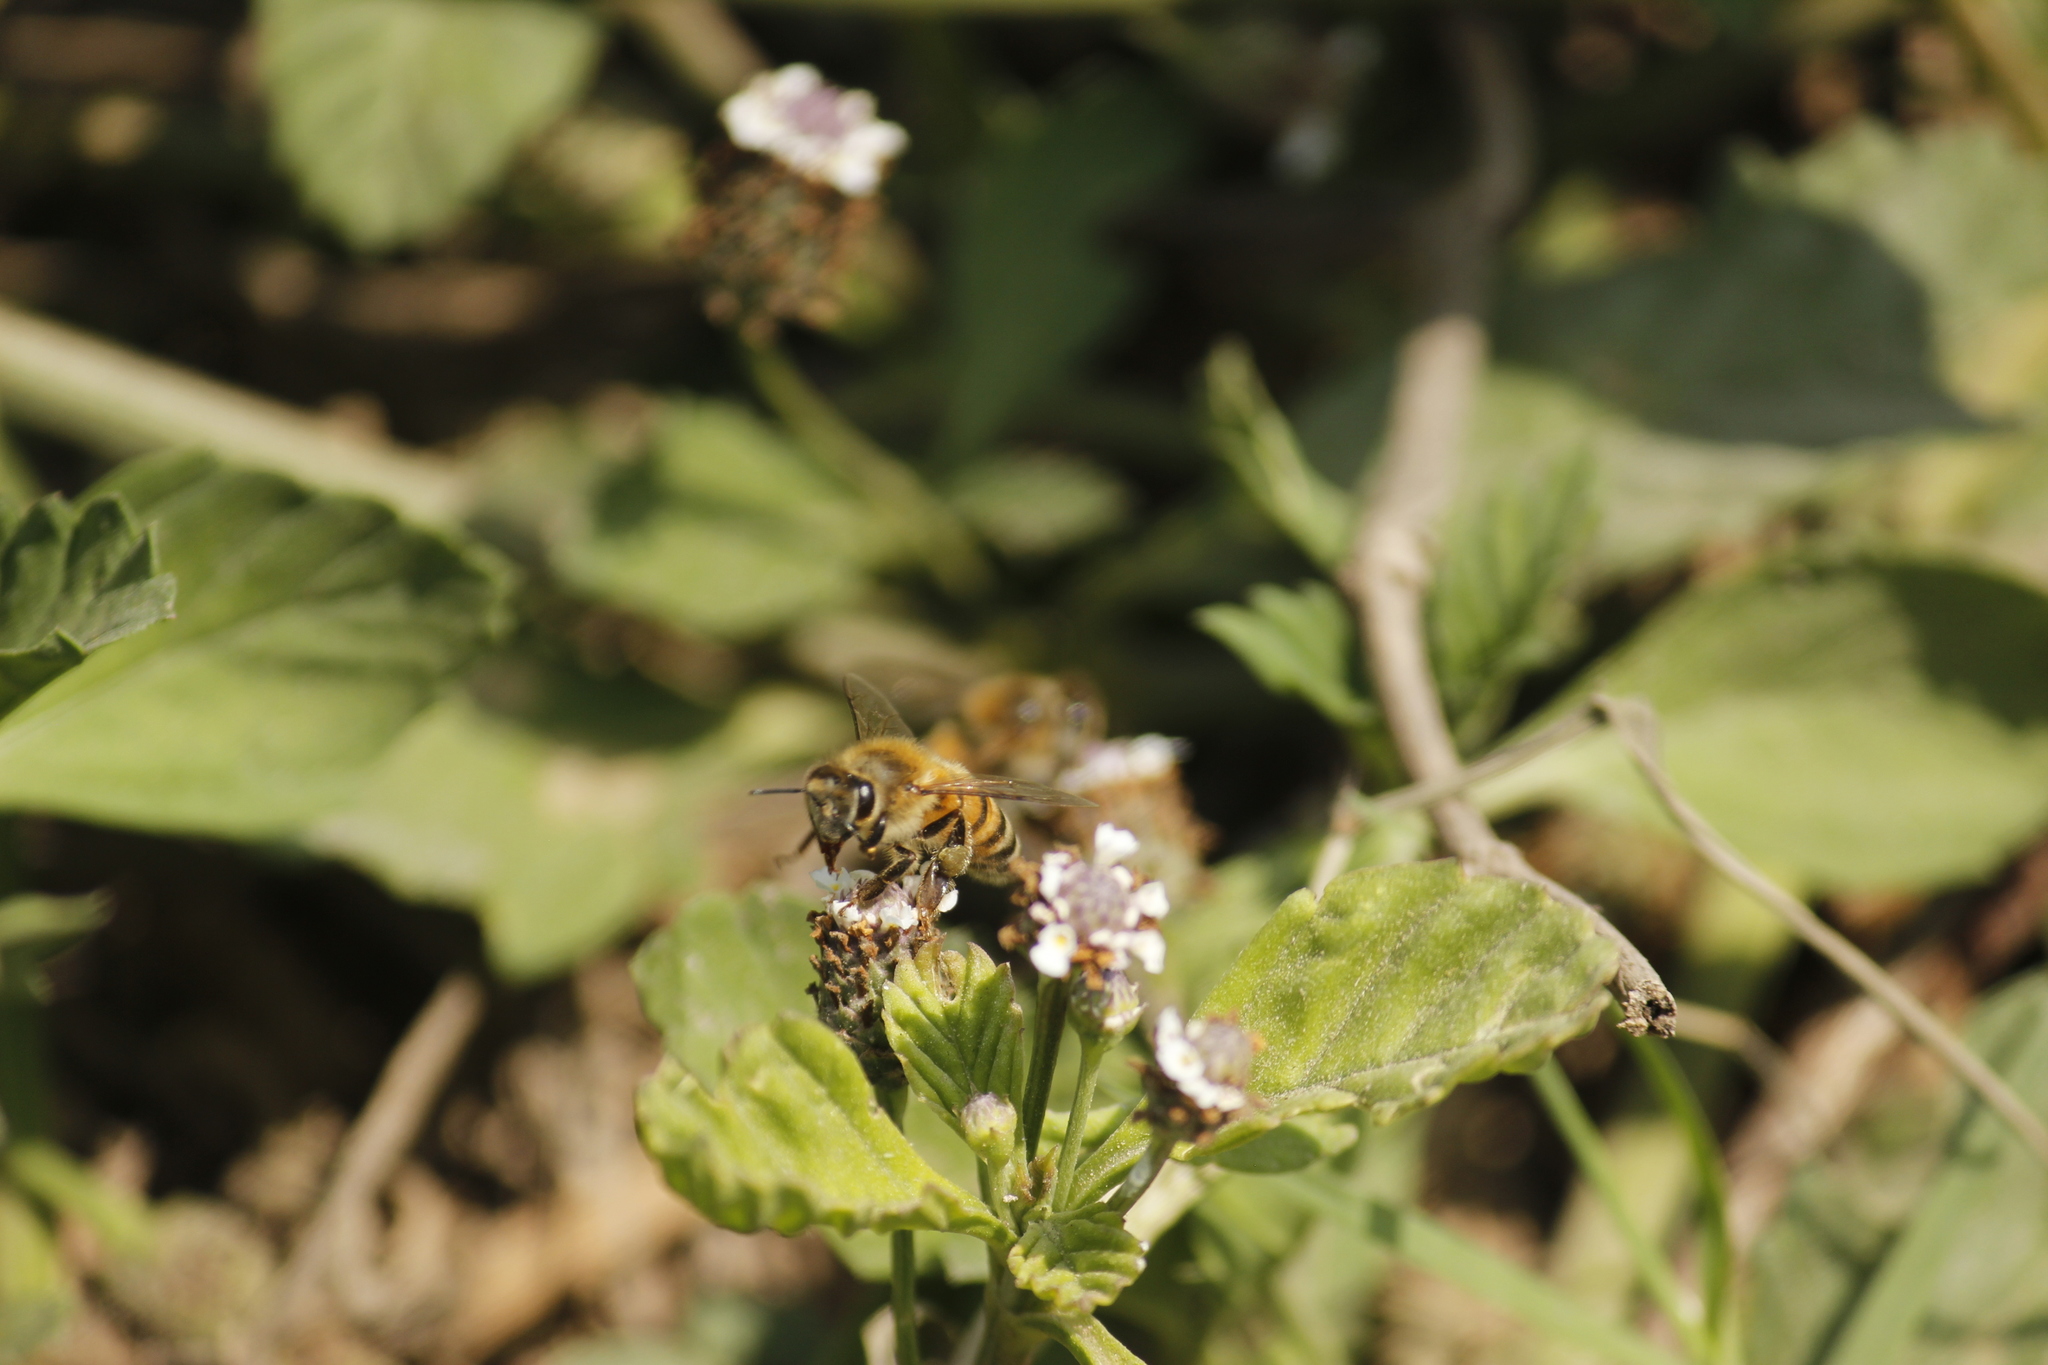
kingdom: Animalia
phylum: Arthropoda
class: Insecta
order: Hymenoptera
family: Apidae
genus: Apis
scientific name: Apis mellifera
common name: Honey bee
